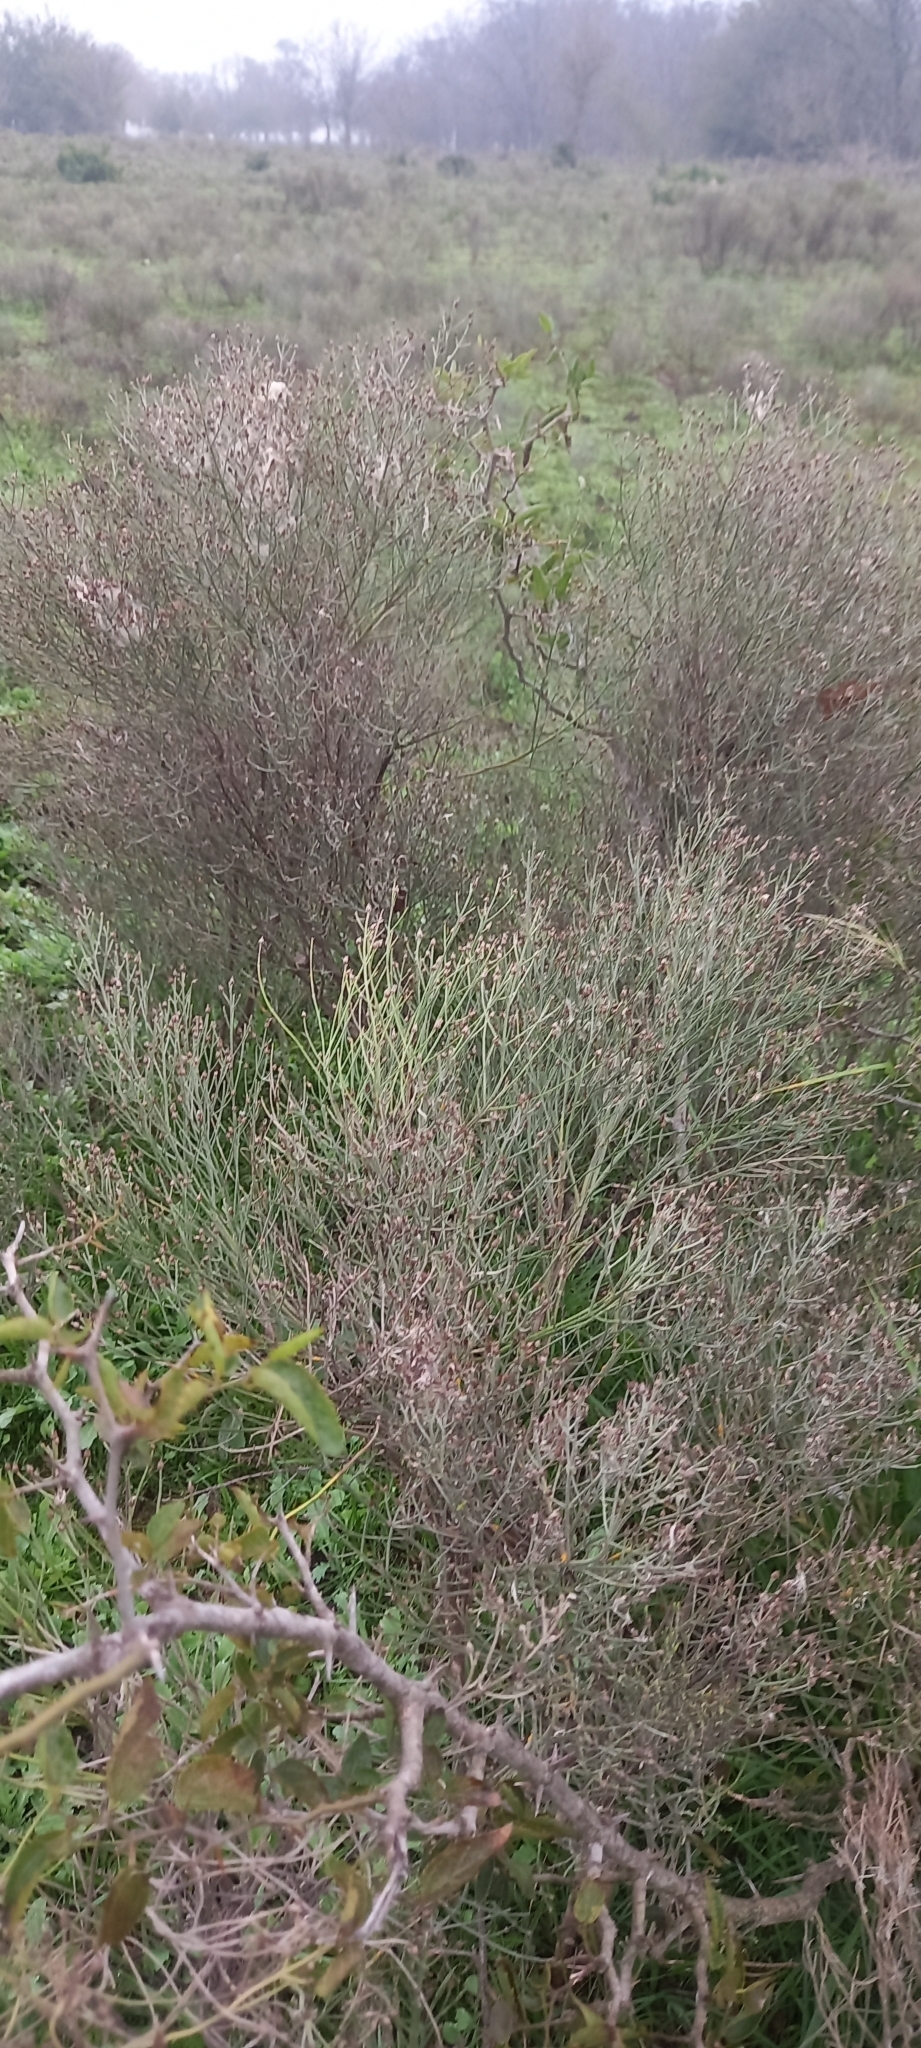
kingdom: Plantae
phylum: Tracheophyta
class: Magnoliopsida
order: Asterales
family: Asteraceae
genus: Baccharis
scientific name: Baccharis notosergila
